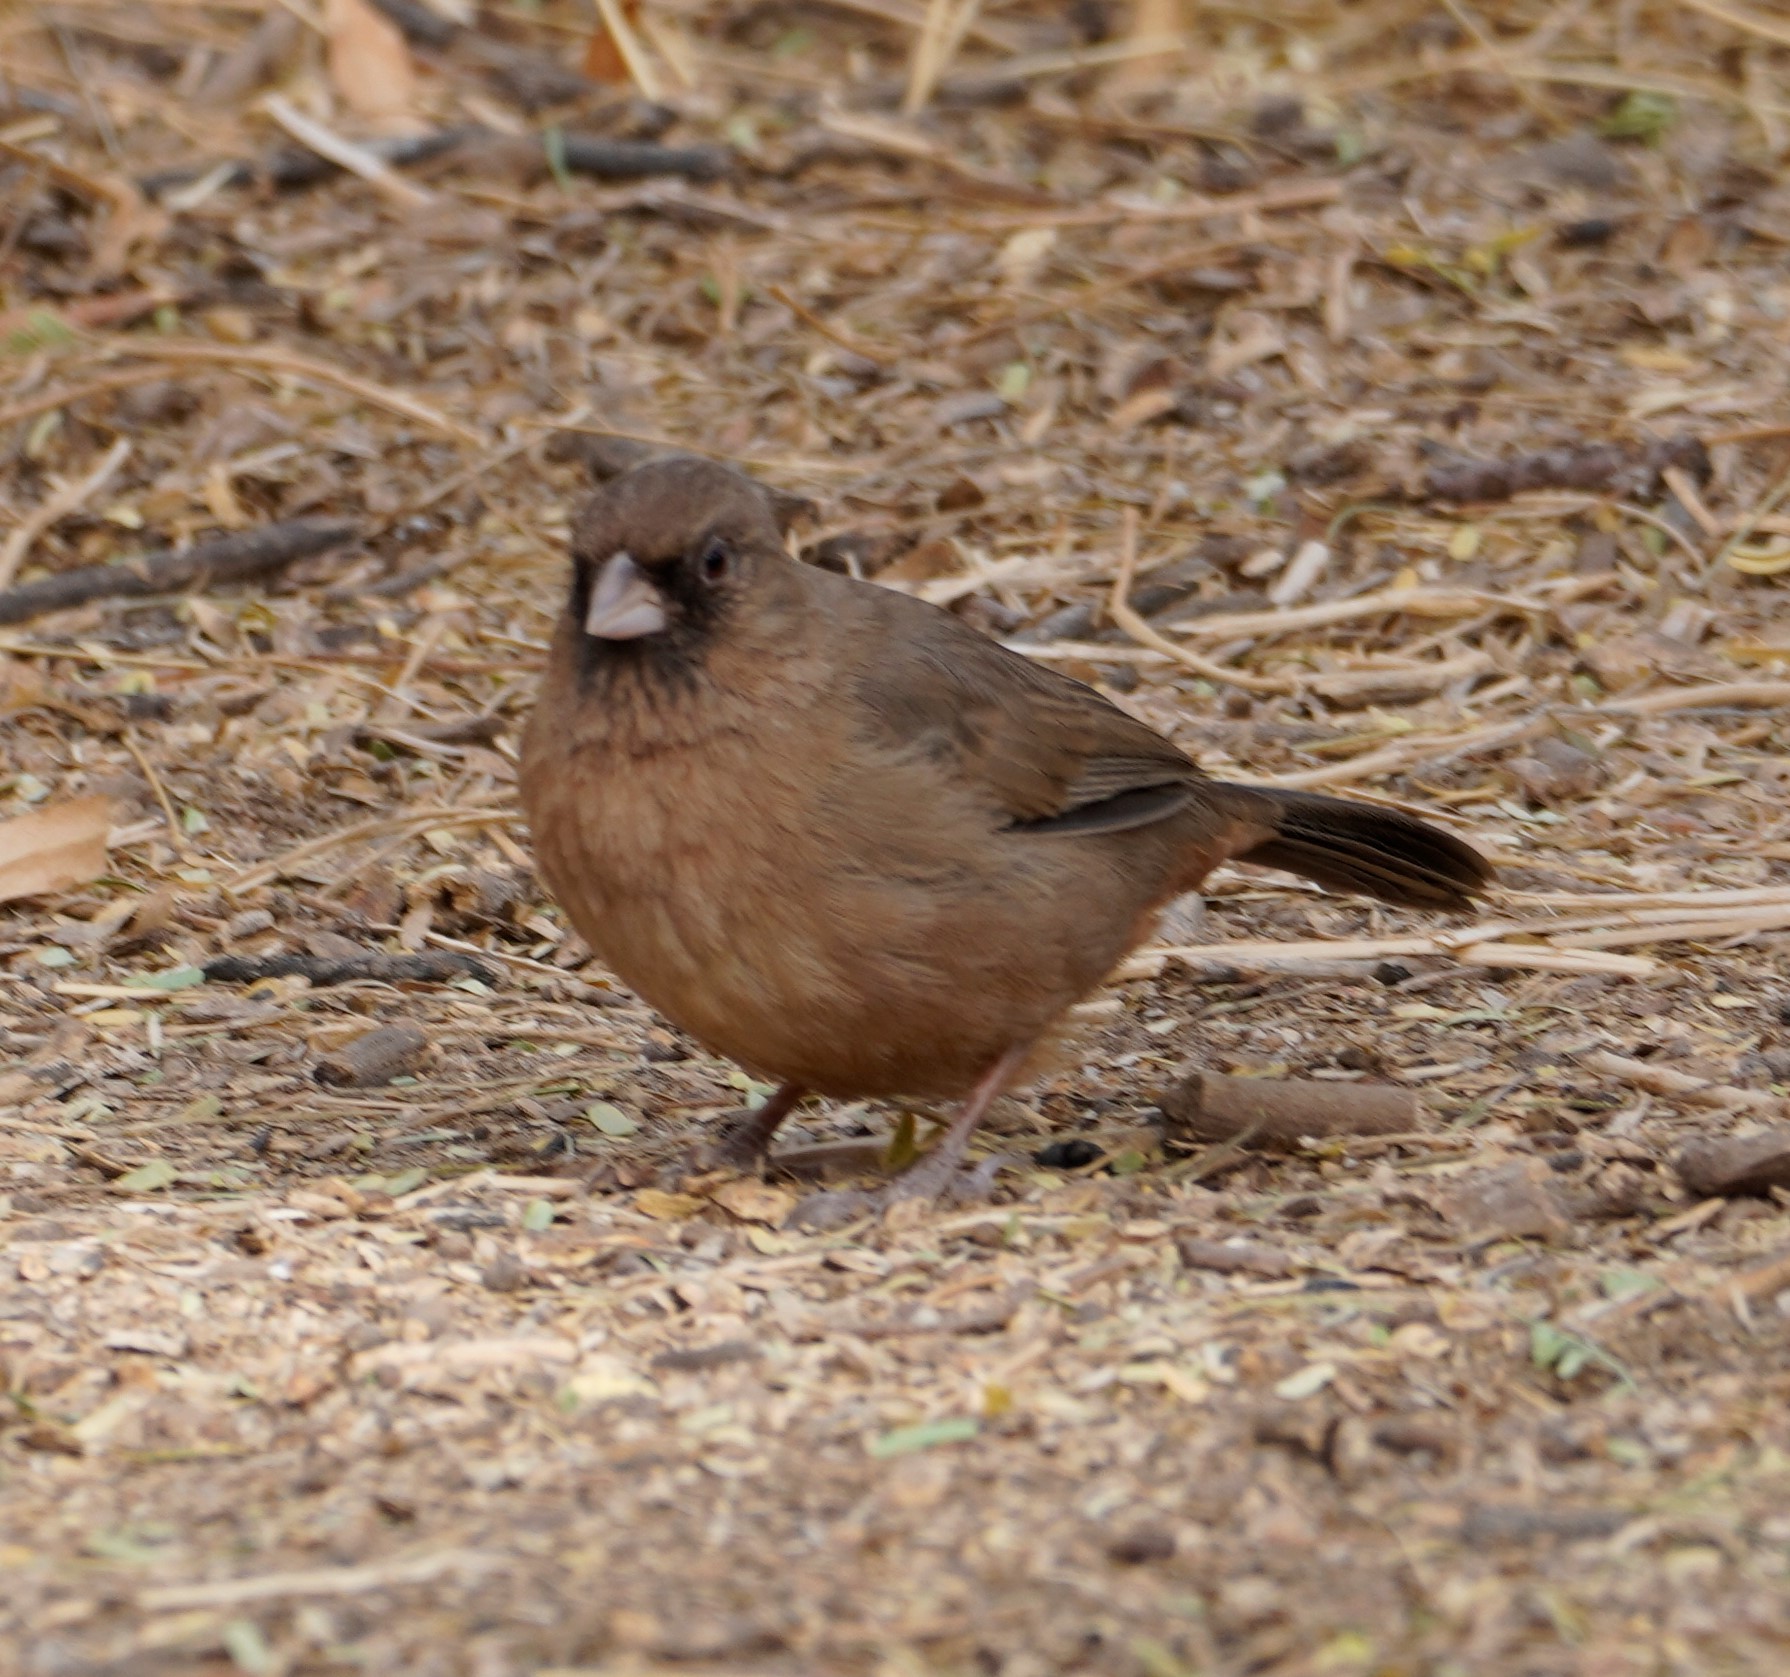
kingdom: Animalia
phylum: Chordata
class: Aves
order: Passeriformes
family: Passerellidae
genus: Melozone
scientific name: Melozone aberti
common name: Abert's towhee
